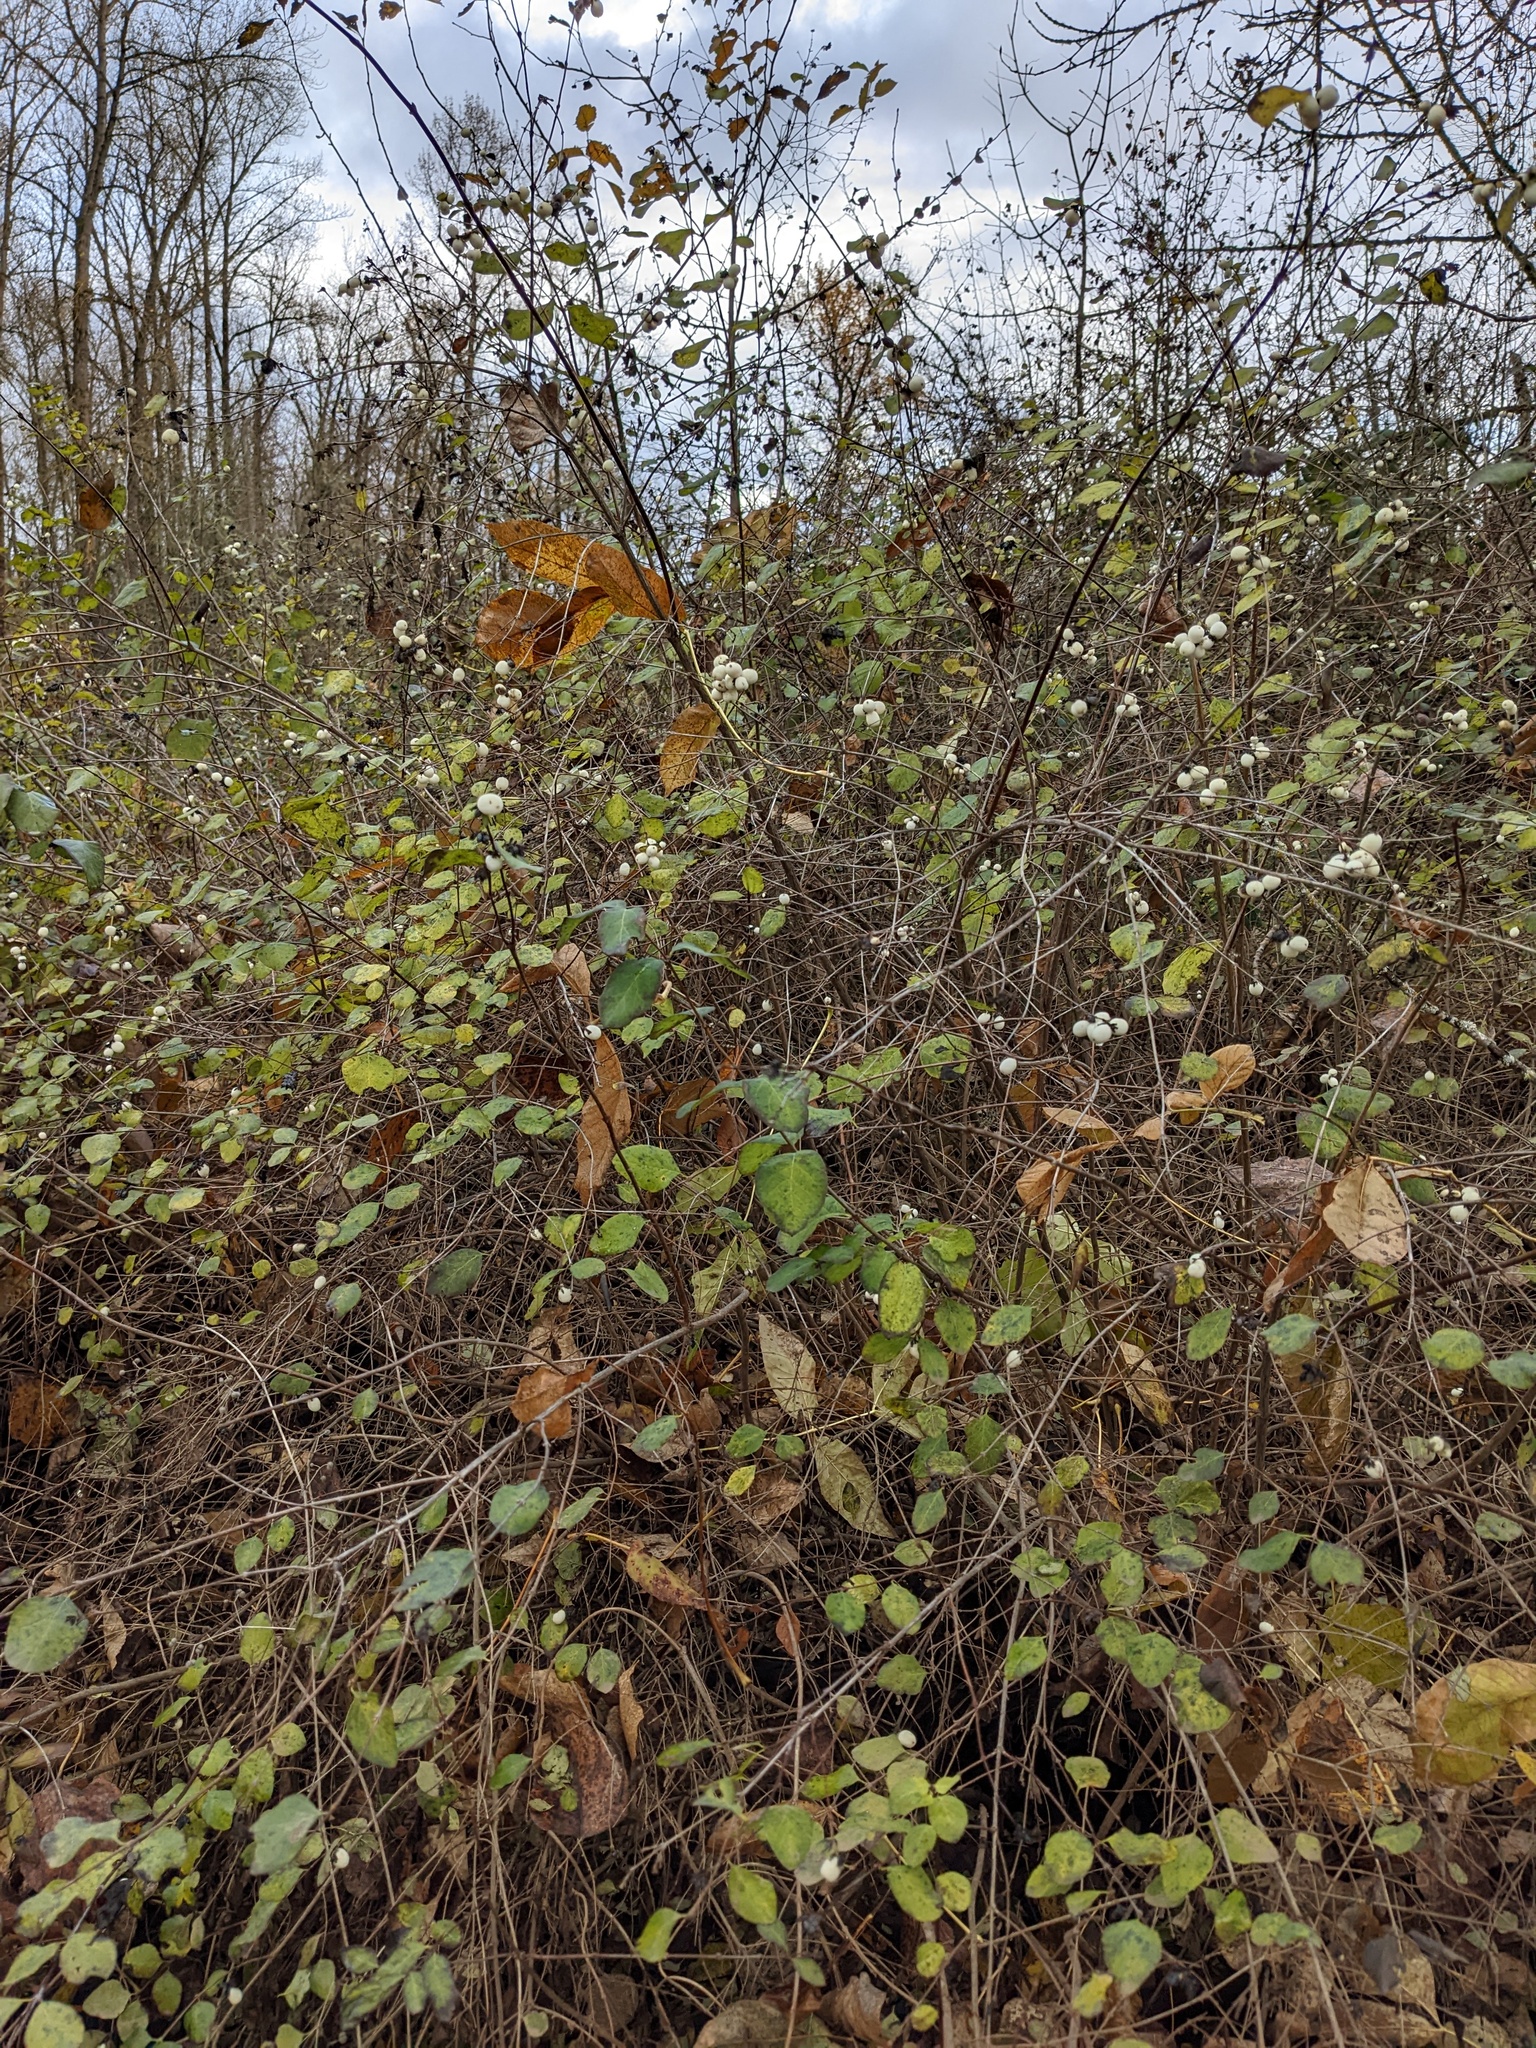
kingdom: Plantae
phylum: Tracheophyta
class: Magnoliopsida
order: Dipsacales
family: Caprifoliaceae
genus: Symphoricarpos
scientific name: Symphoricarpos albus
